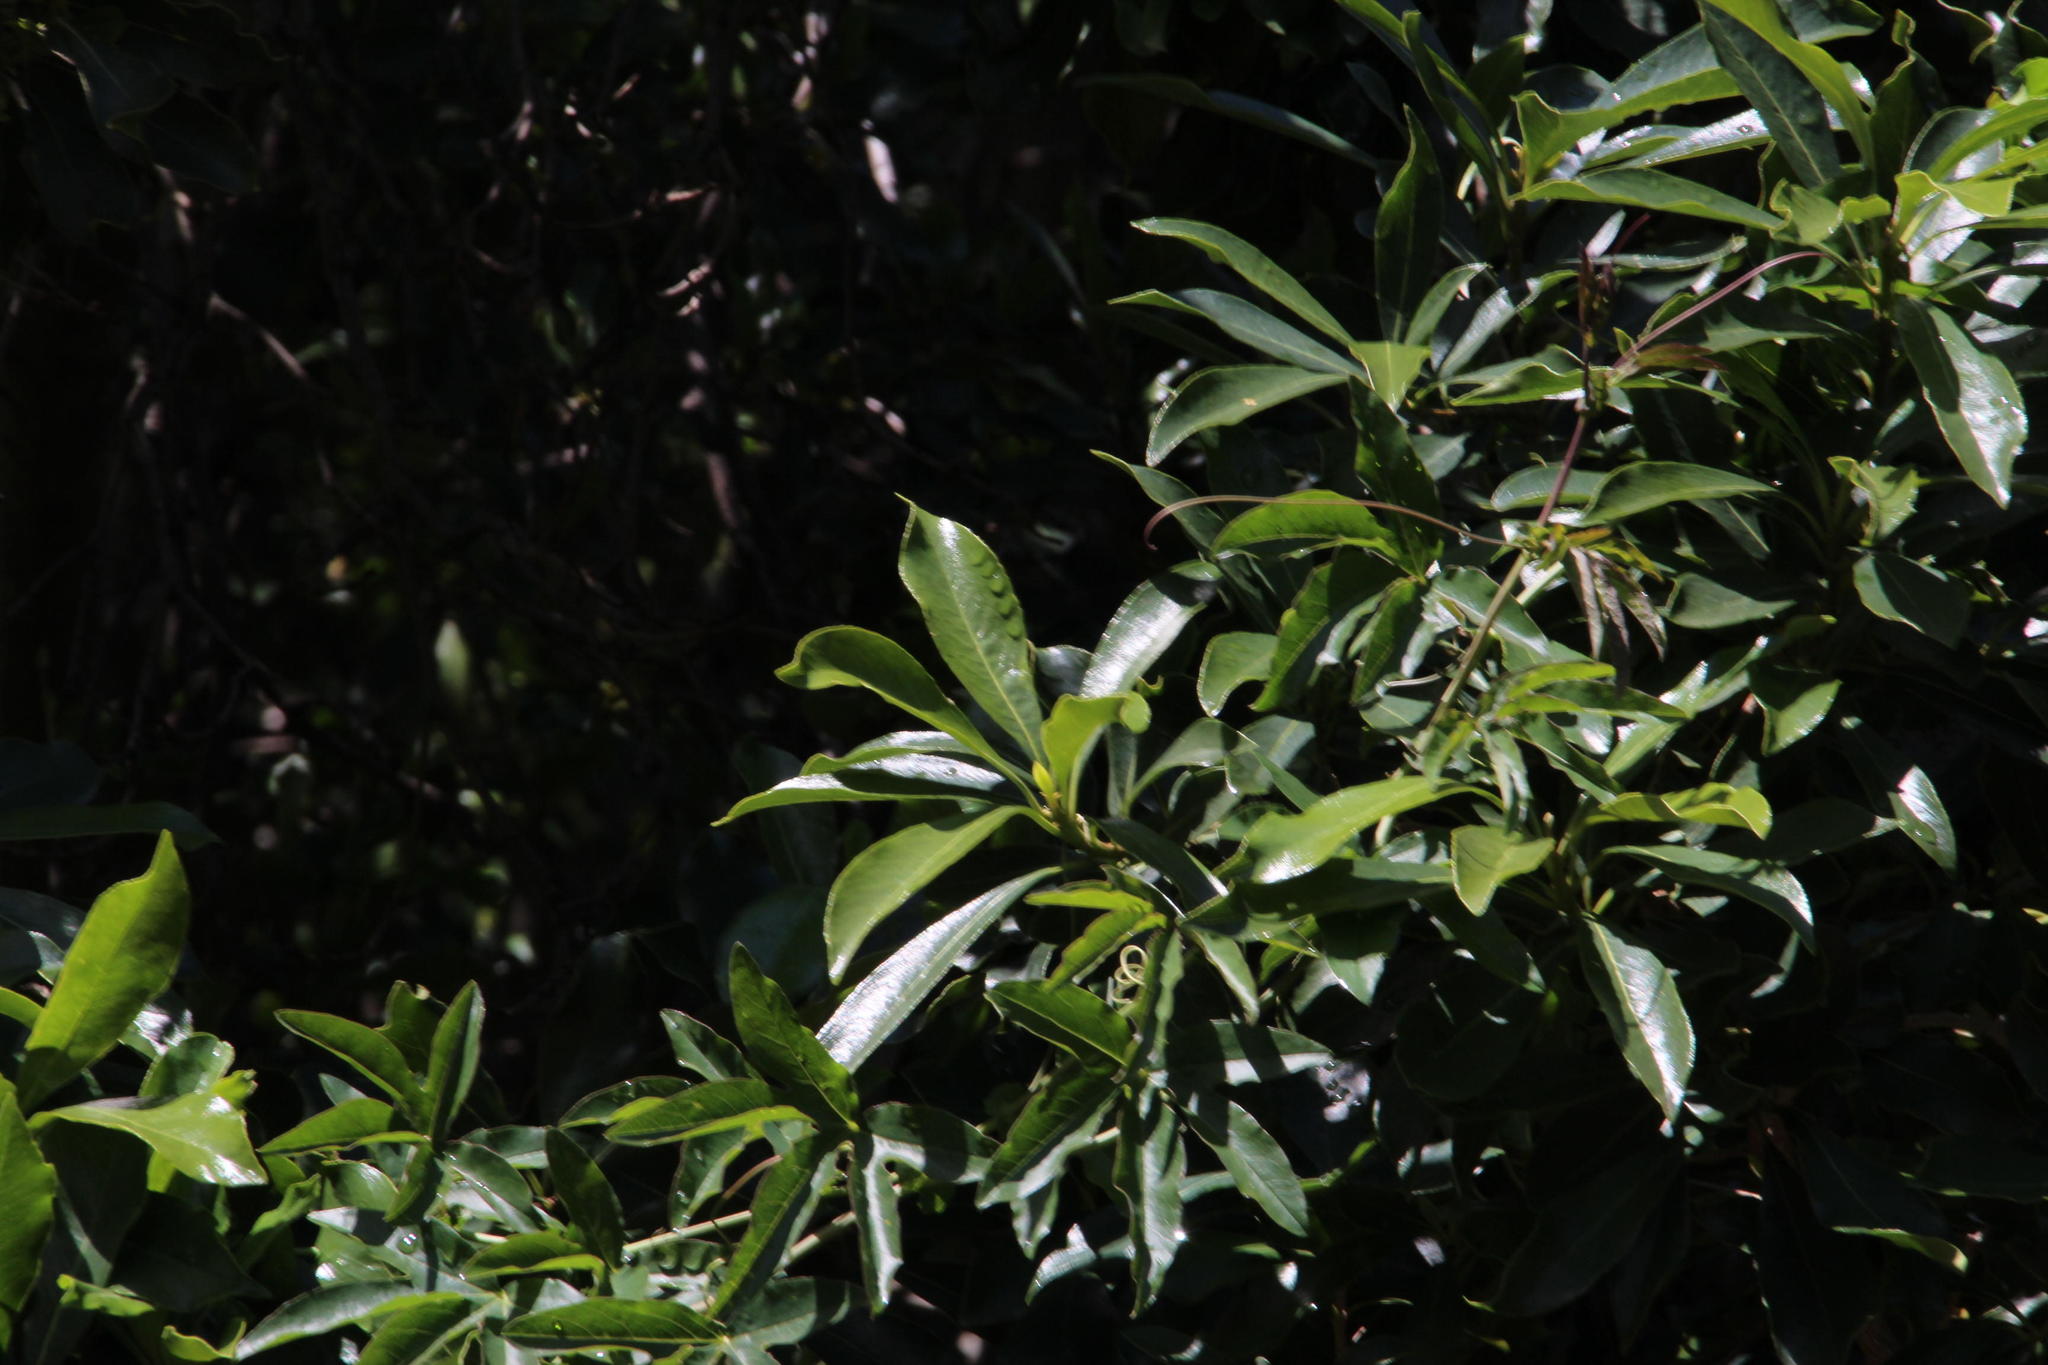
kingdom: Plantae
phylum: Tracheophyta
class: Magnoliopsida
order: Apiales
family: Pittosporaceae
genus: Pittosporum
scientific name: Pittosporum viridiflorum
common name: Cape cheesewood
